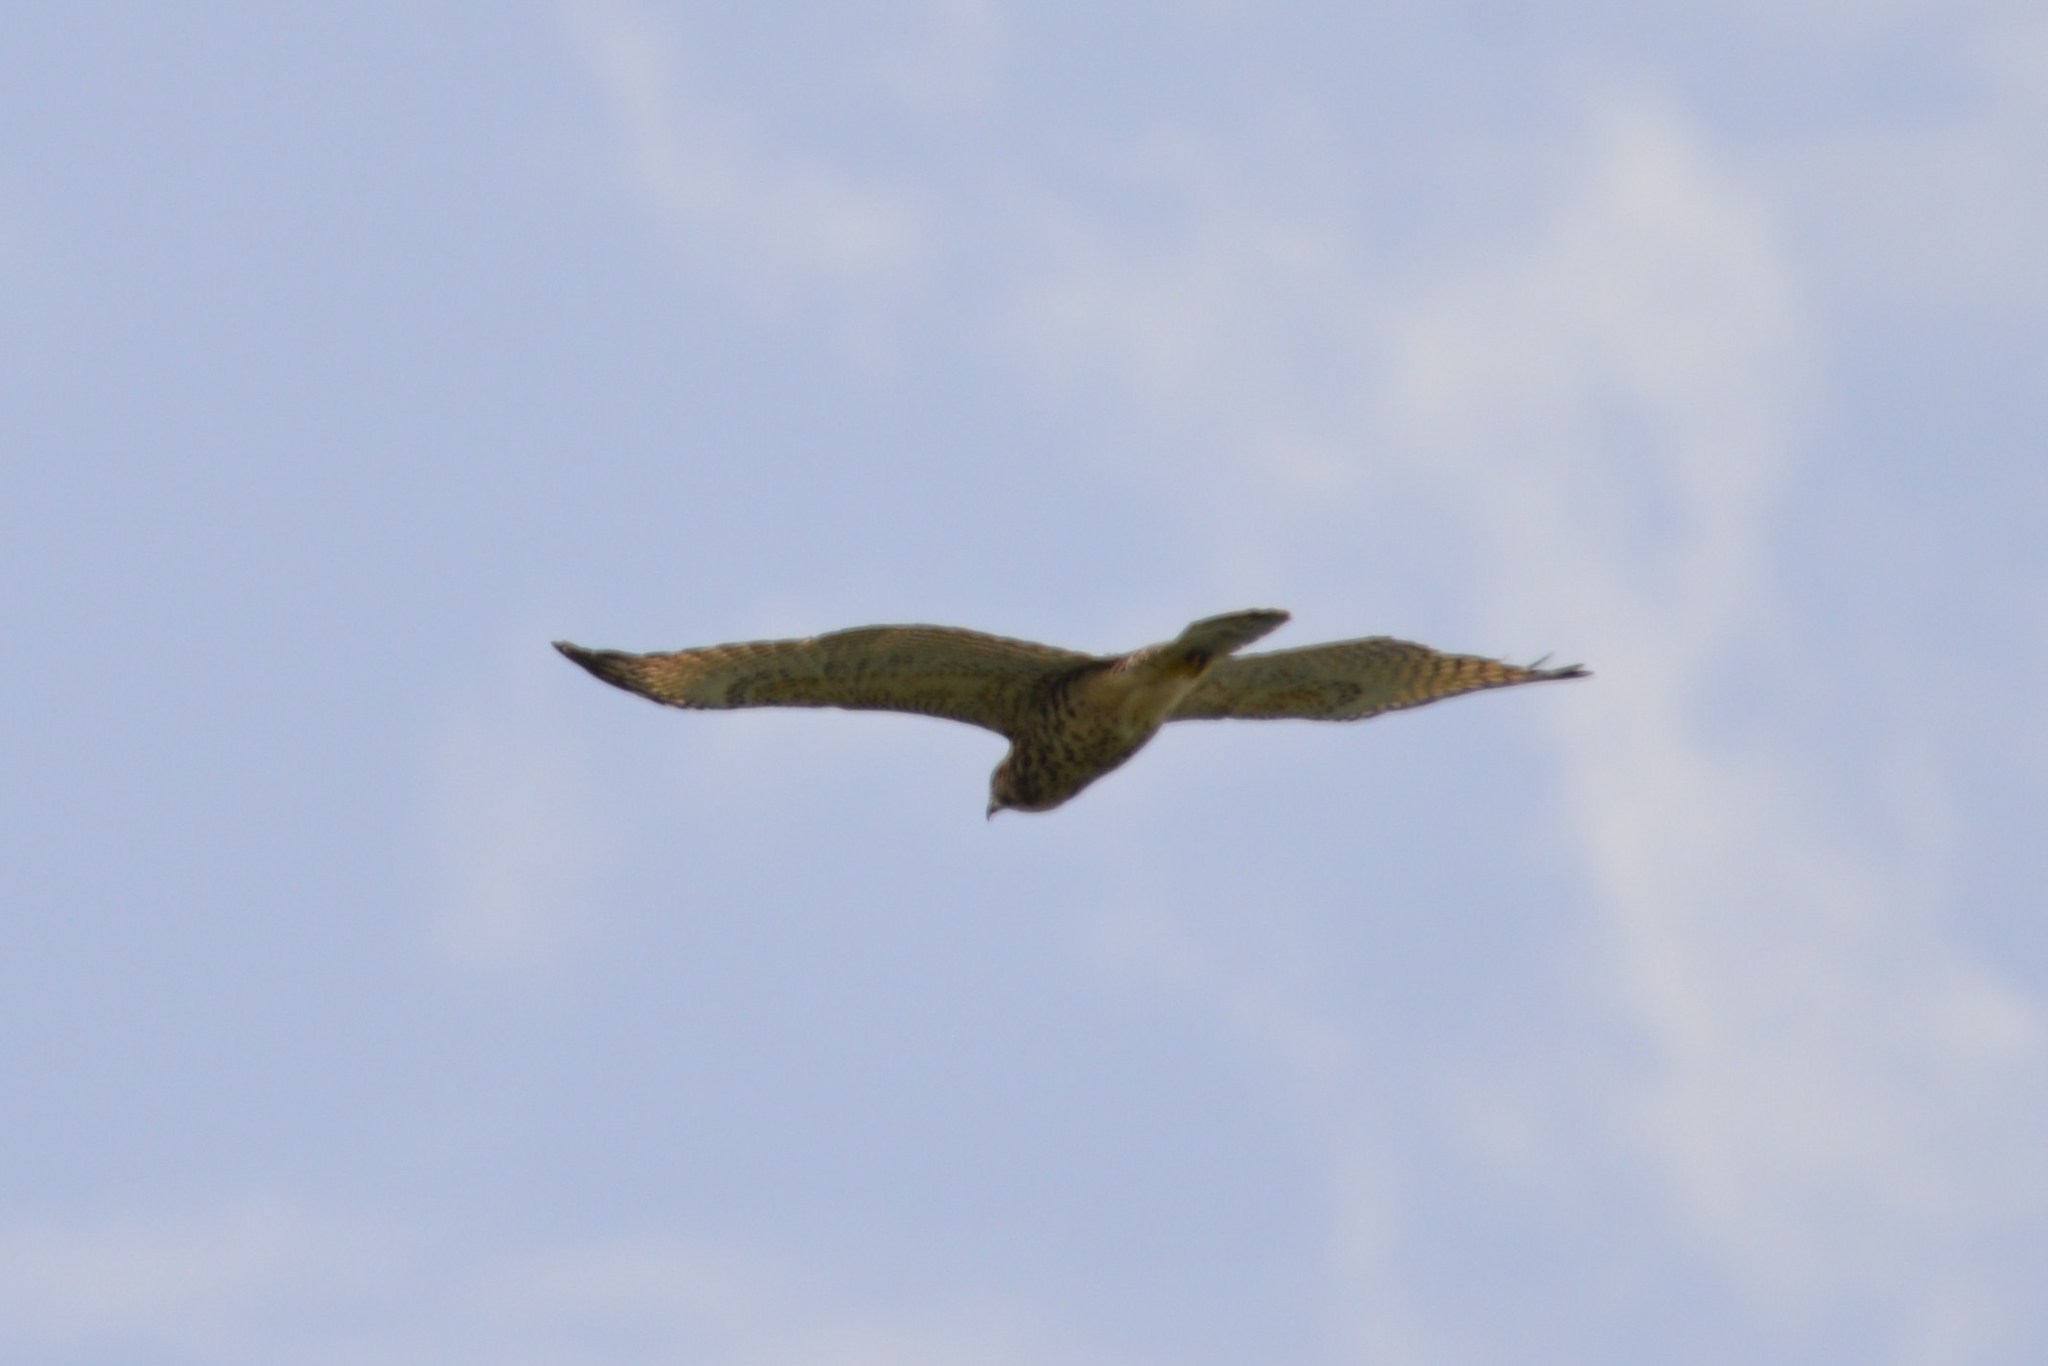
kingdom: Animalia
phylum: Chordata
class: Aves
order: Accipitriformes
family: Accipitridae
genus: Buteo
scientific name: Buteo platypterus
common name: Broad-winged hawk
